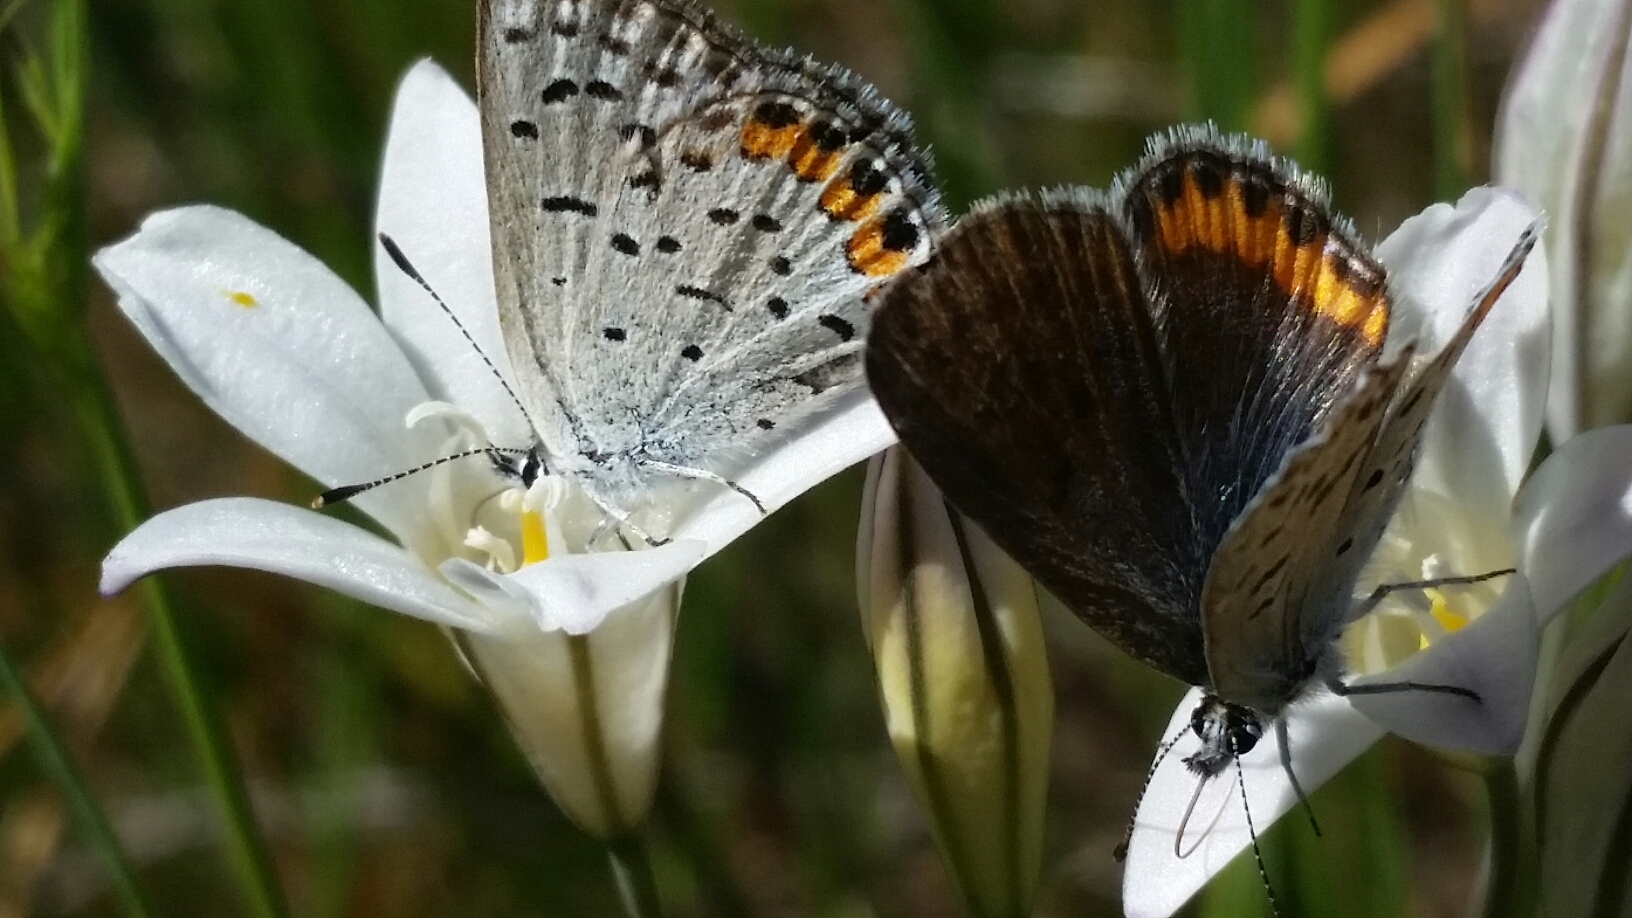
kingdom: Animalia
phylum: Arthropoda
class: Insecta
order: Lepidoptera
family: Lycaenidae
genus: Icaricia
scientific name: Icaricia acmon
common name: Acmon blue
